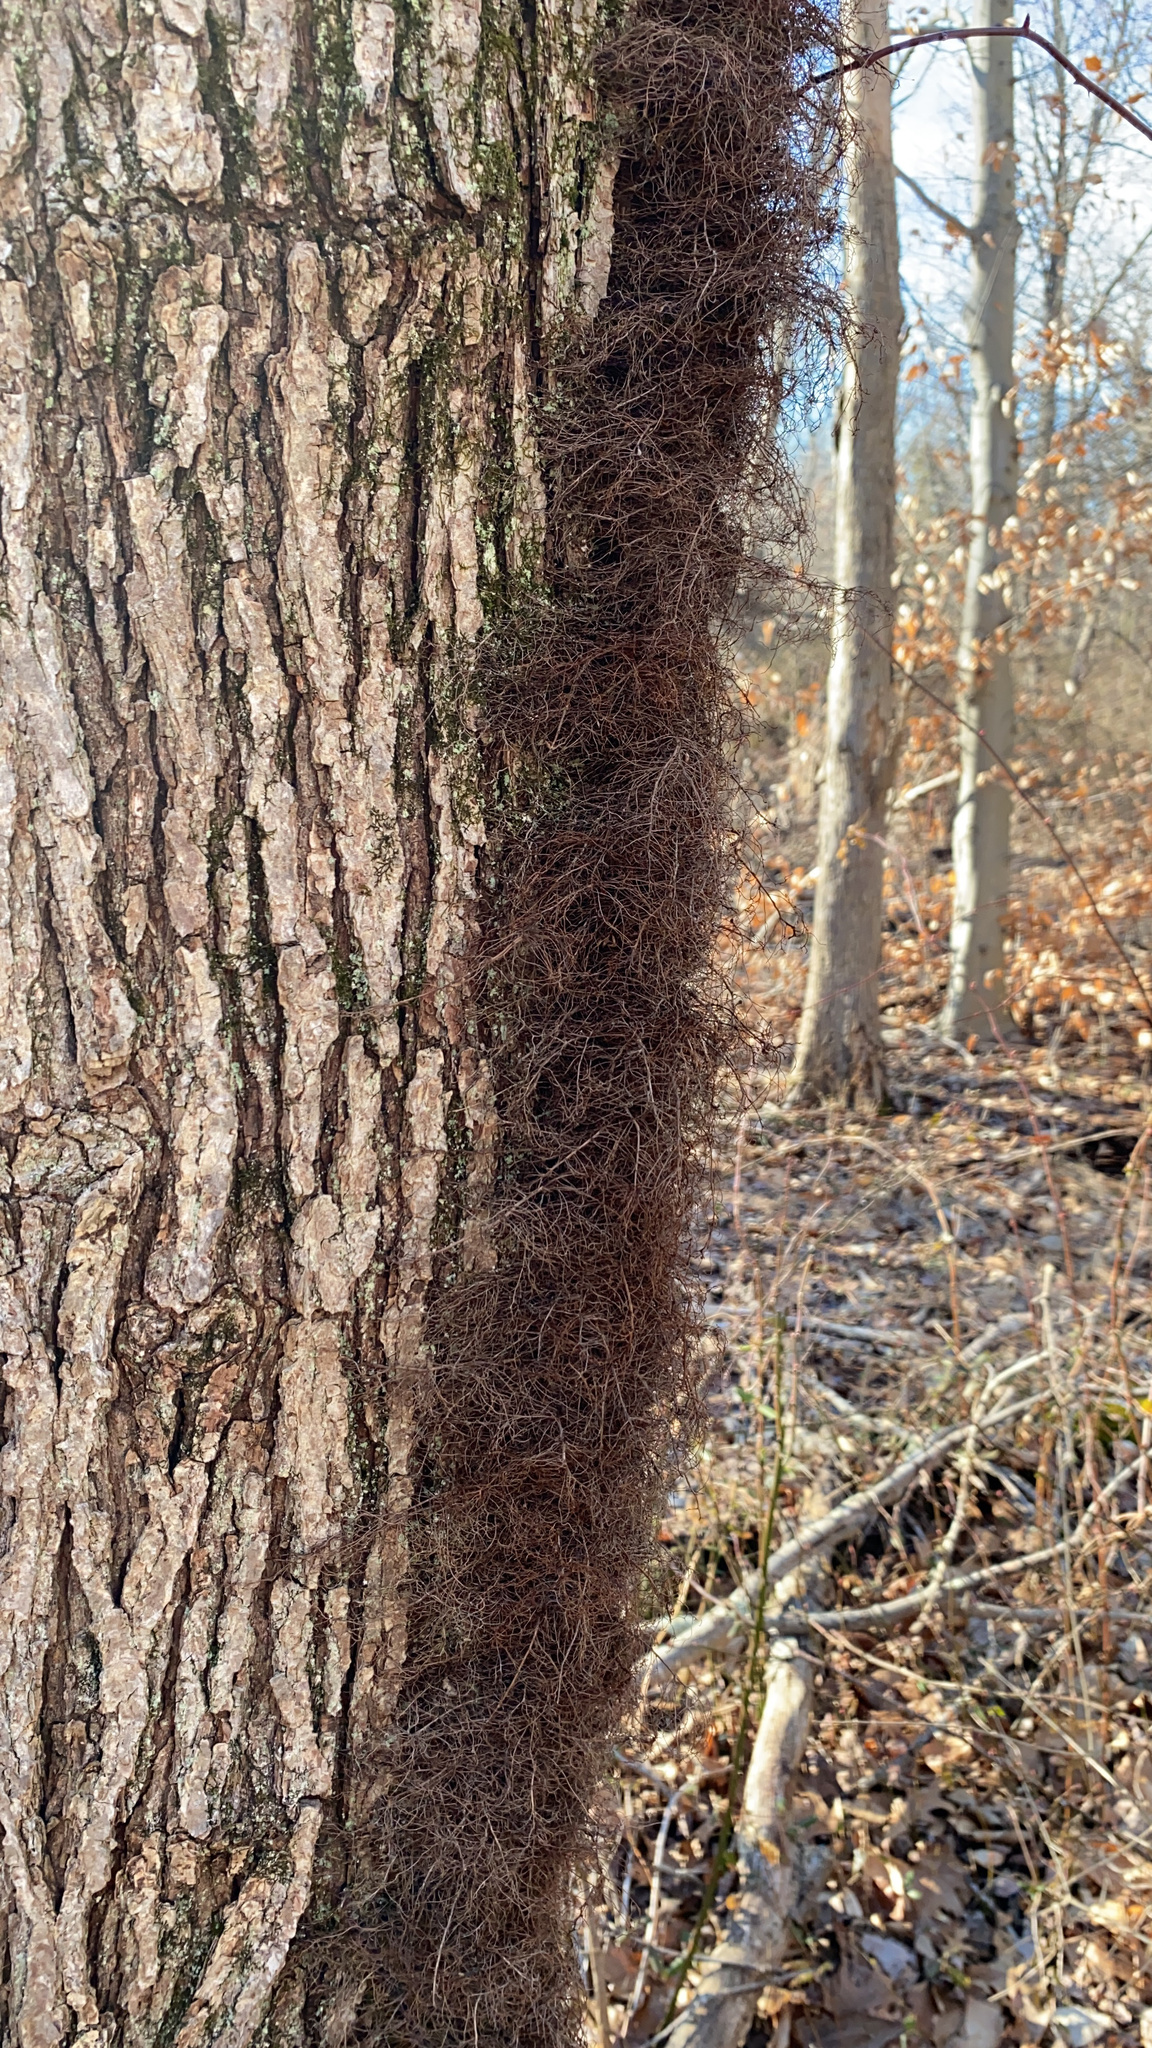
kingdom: Plantae
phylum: Tracheophyta
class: Magnoliopsida
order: Sapindales
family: Anacardiaceae
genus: Toxicodendron
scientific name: Toxicodendron radicans
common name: Poison ivy
